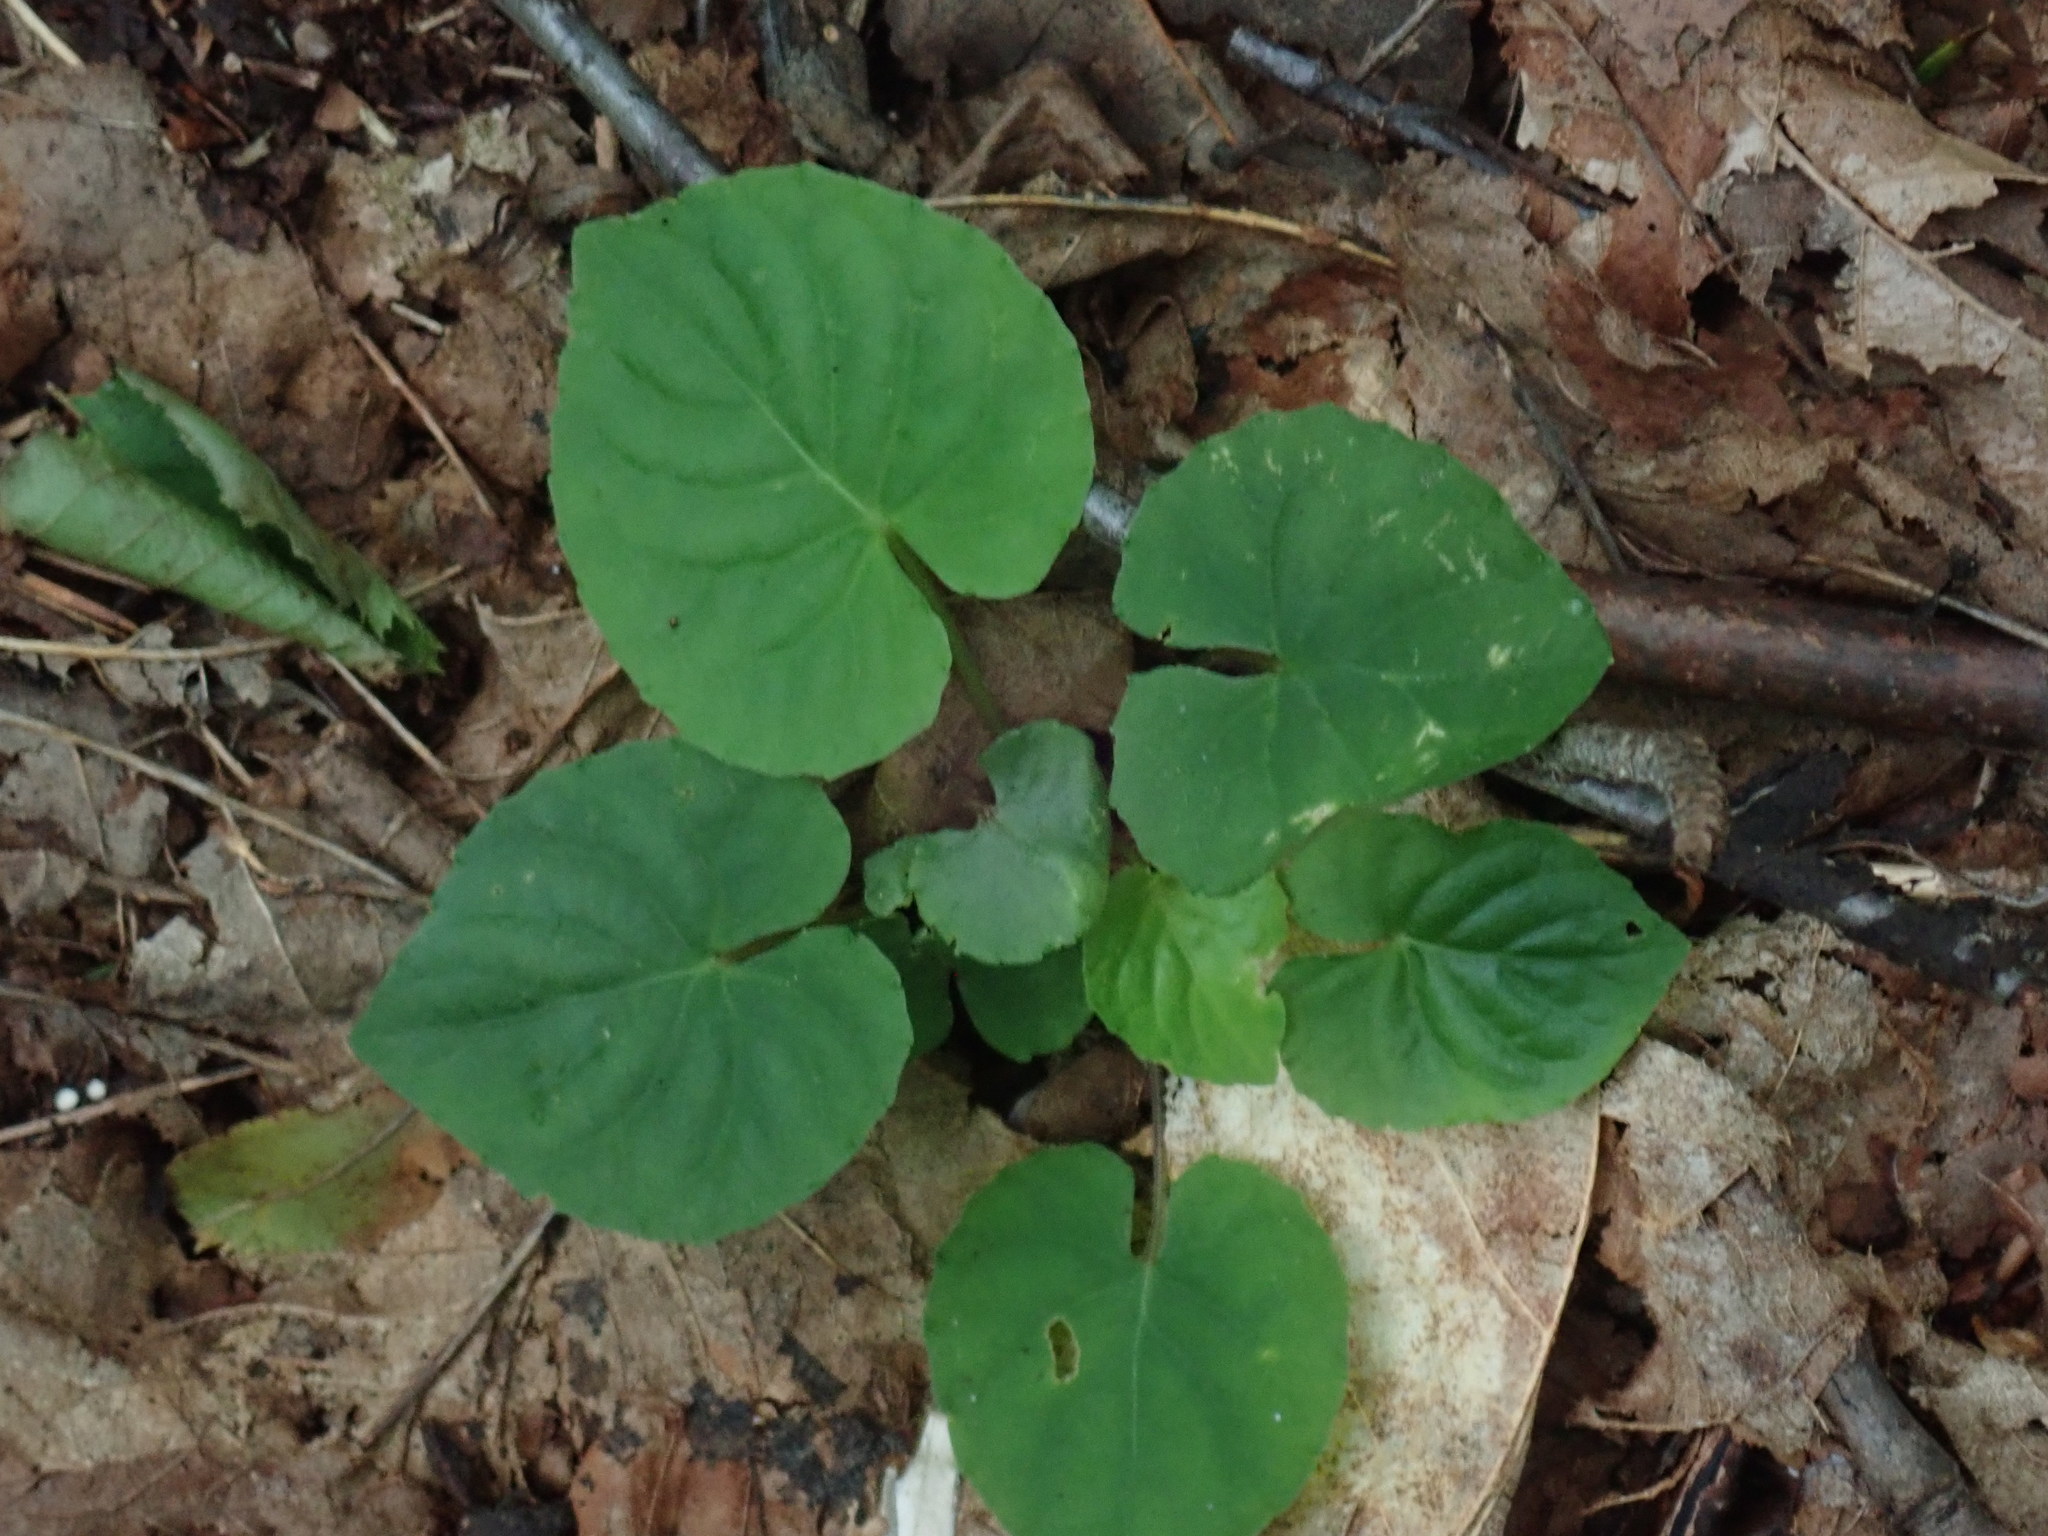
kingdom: Plantae
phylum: Tracheophyta
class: Magnoliopsida
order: Malpighiales
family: Violaceae
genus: Viola
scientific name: Viola rotundifolia
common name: Early yellow violet
